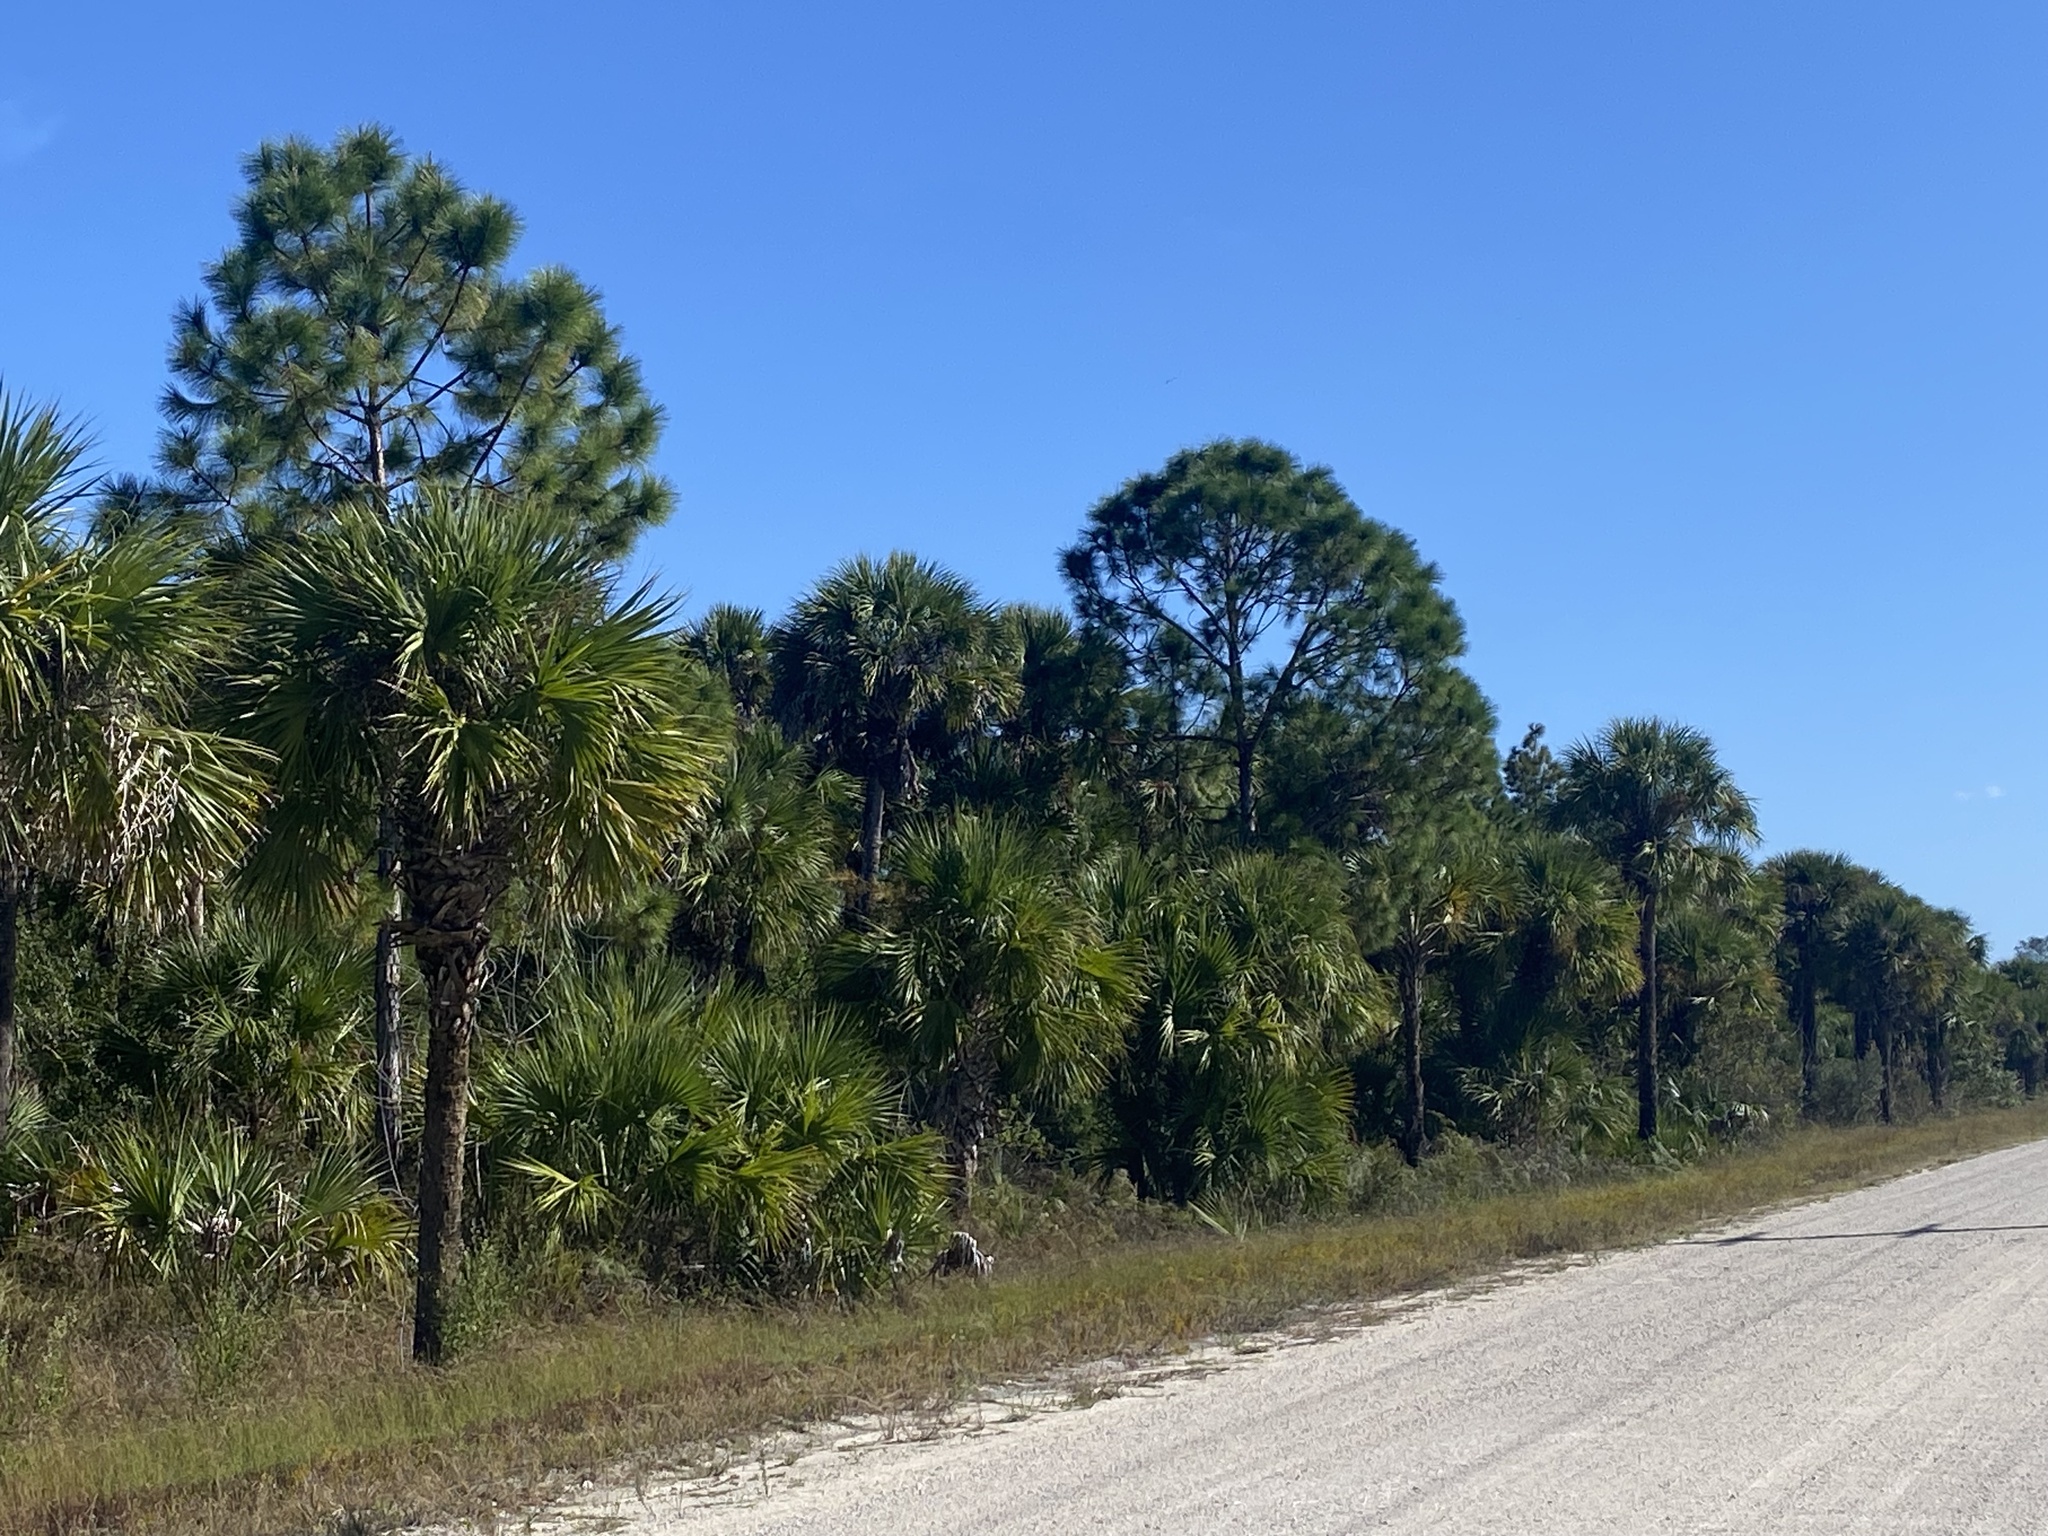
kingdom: Plantae
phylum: Tracheophyta
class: Liliopsida
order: Arecales
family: Arecaceae
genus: Sabal
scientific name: Sabal palmetto
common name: Blue palmetto
